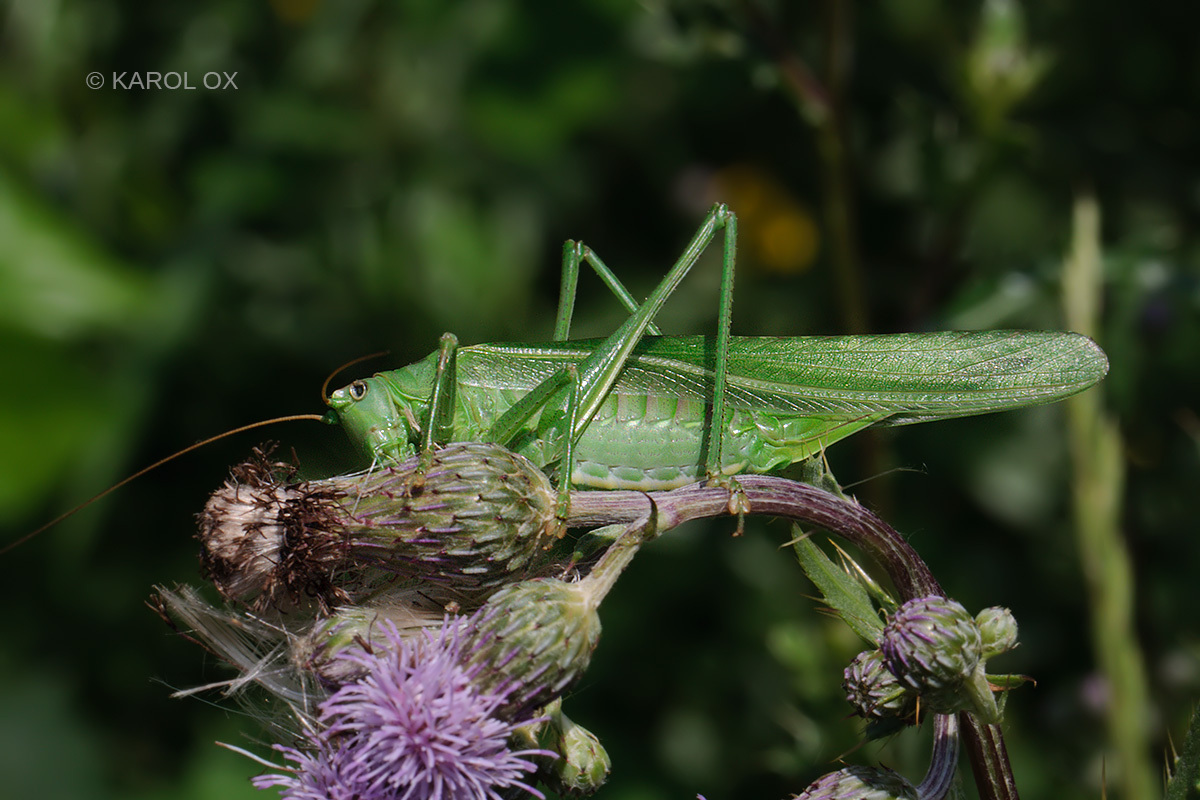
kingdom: Animalia
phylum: Arthropoda
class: Insecta
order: Orthoptera
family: Tettigoniidae
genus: Tettigonia
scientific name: Tettigonia viridissima
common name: Great green bush-cricket
